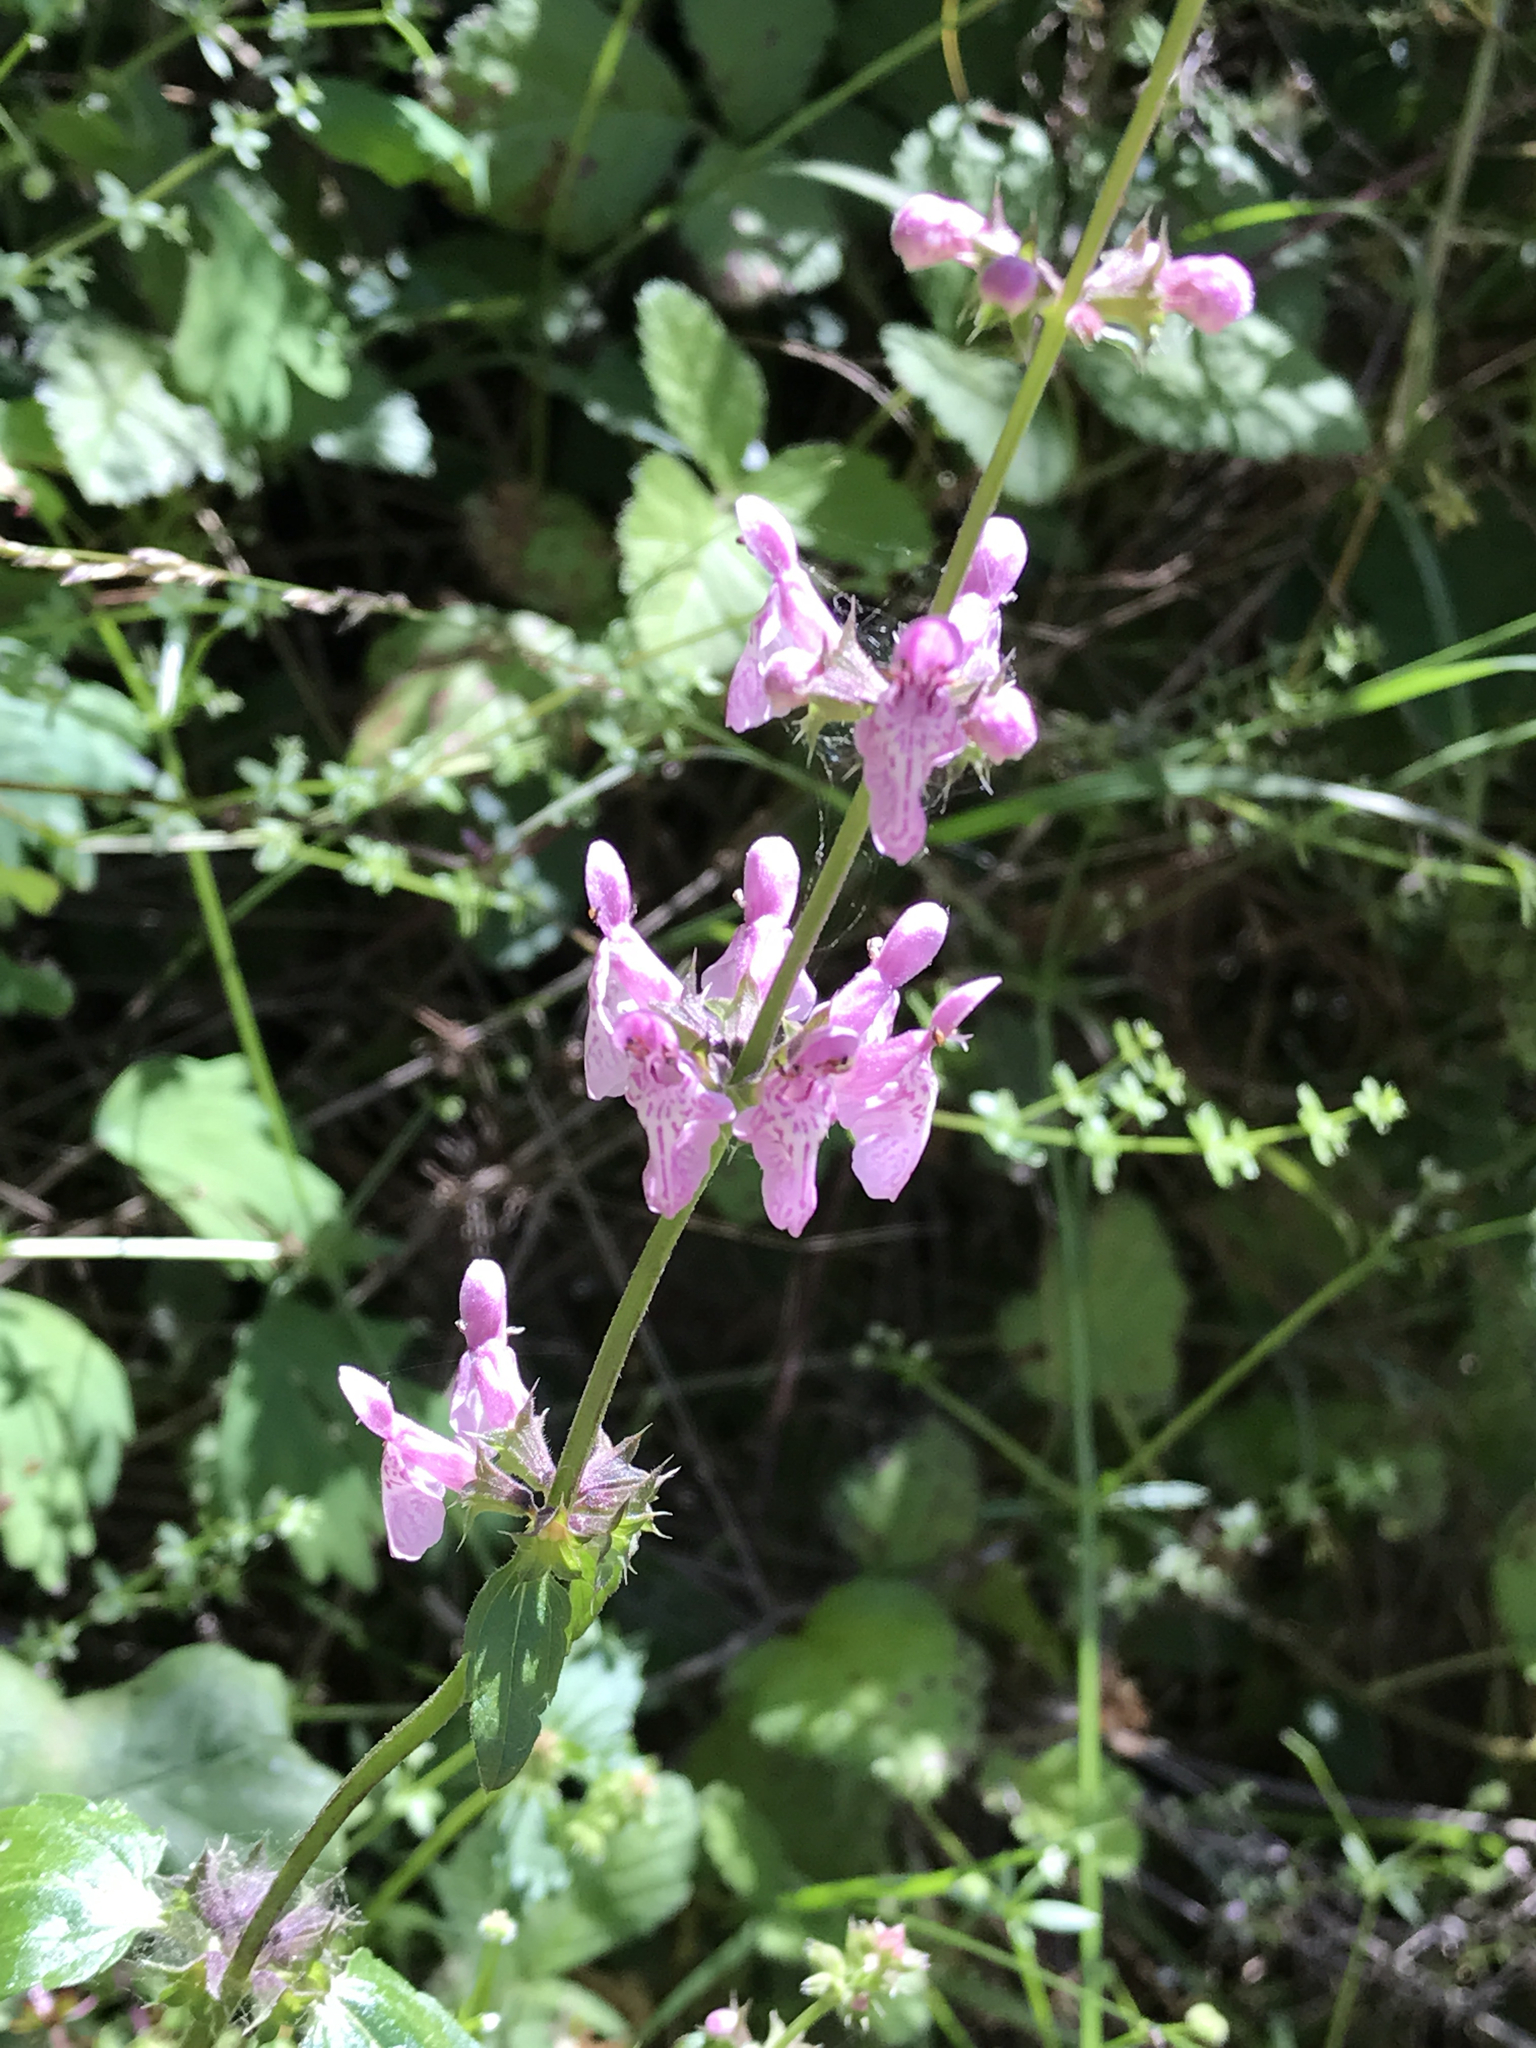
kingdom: Plantae
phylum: Tracheophyta
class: Magnoliopsida
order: Lamiales
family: Lamiaceae
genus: Stachys
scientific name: Stachys rigida
